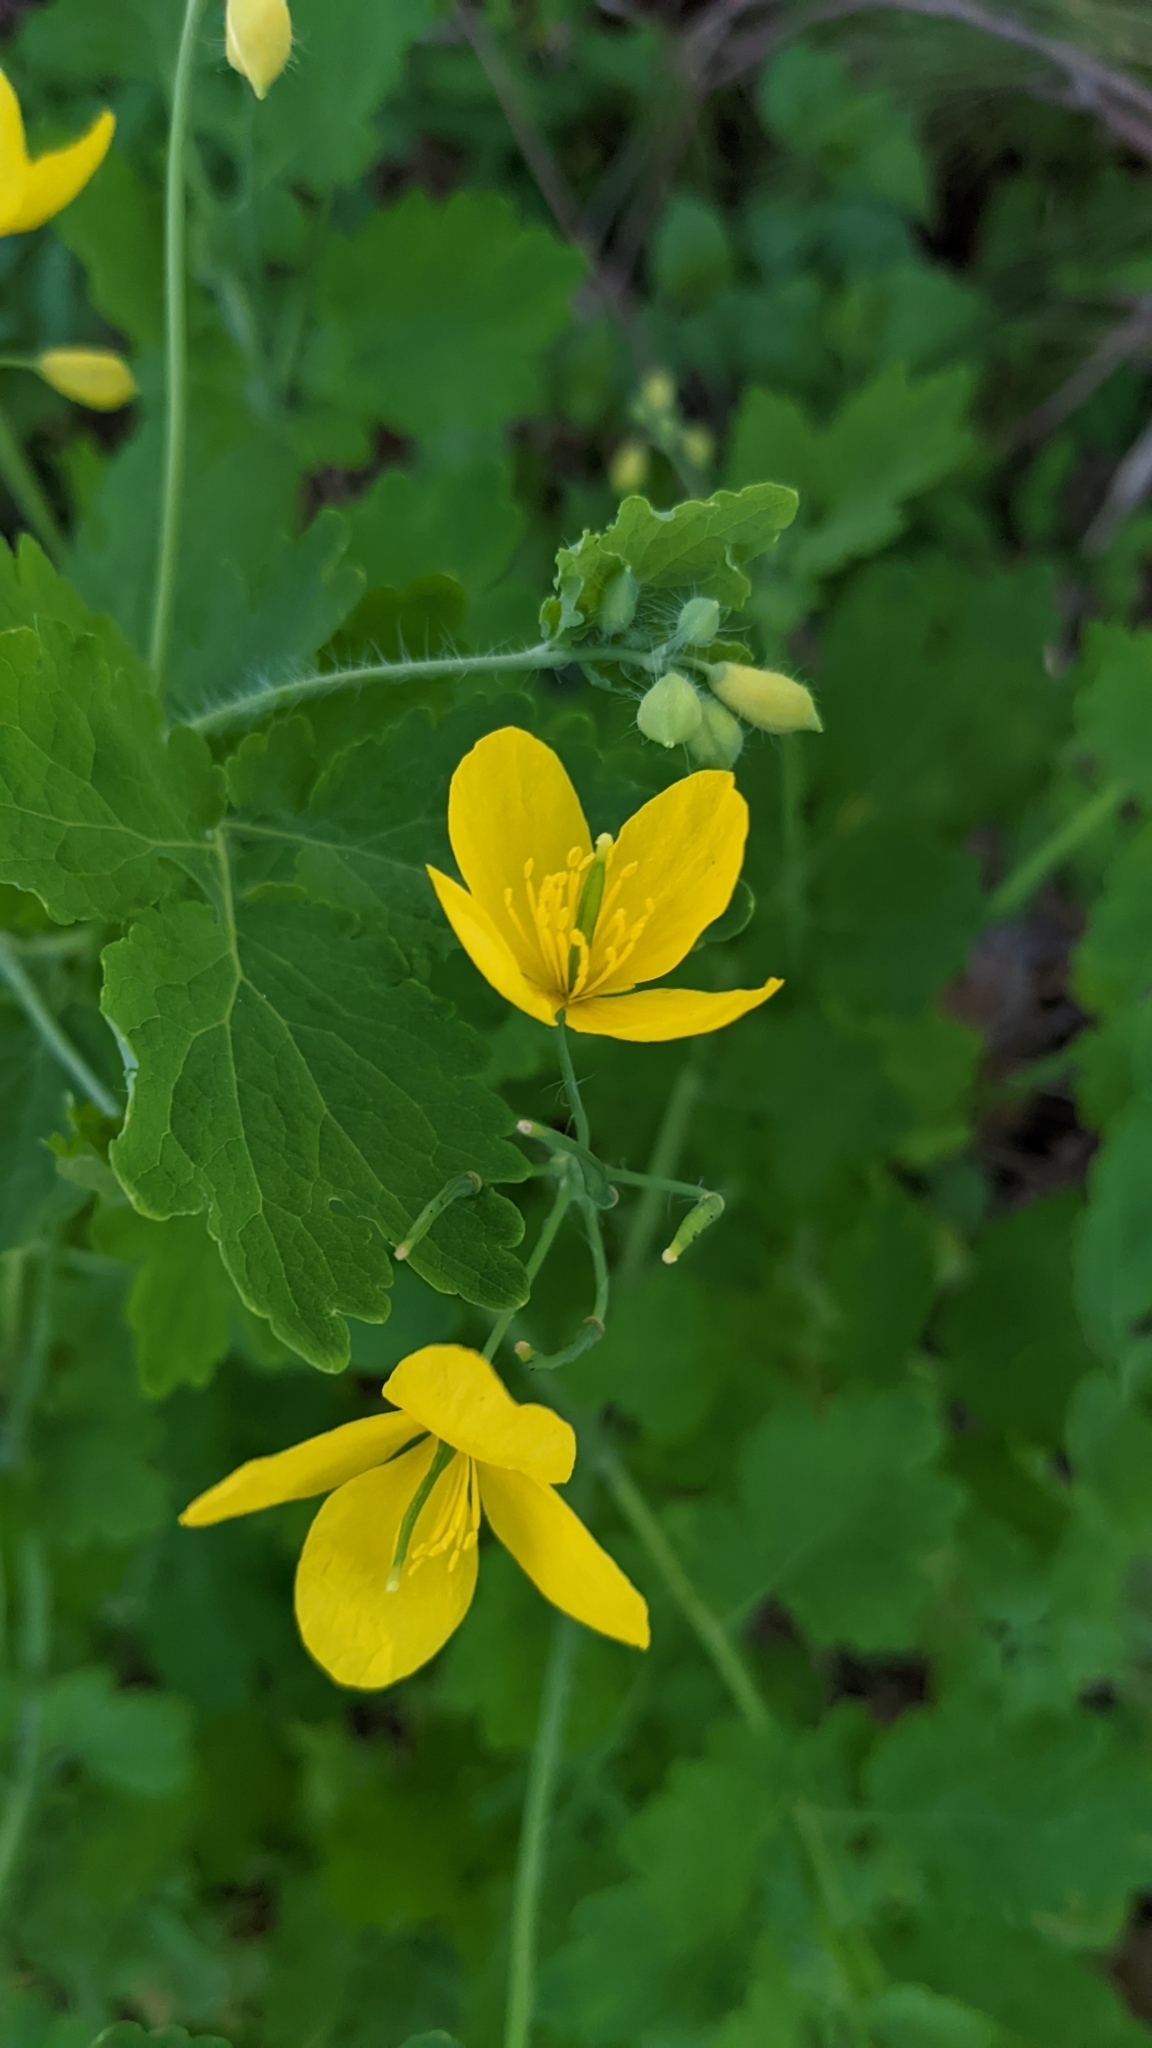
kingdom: Plantae
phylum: Tracheophyta
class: Magnoliopsida
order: Ranunculales
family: Papaveraceae
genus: Chelidonium
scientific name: Chelidonium majus
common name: Greater celandine
